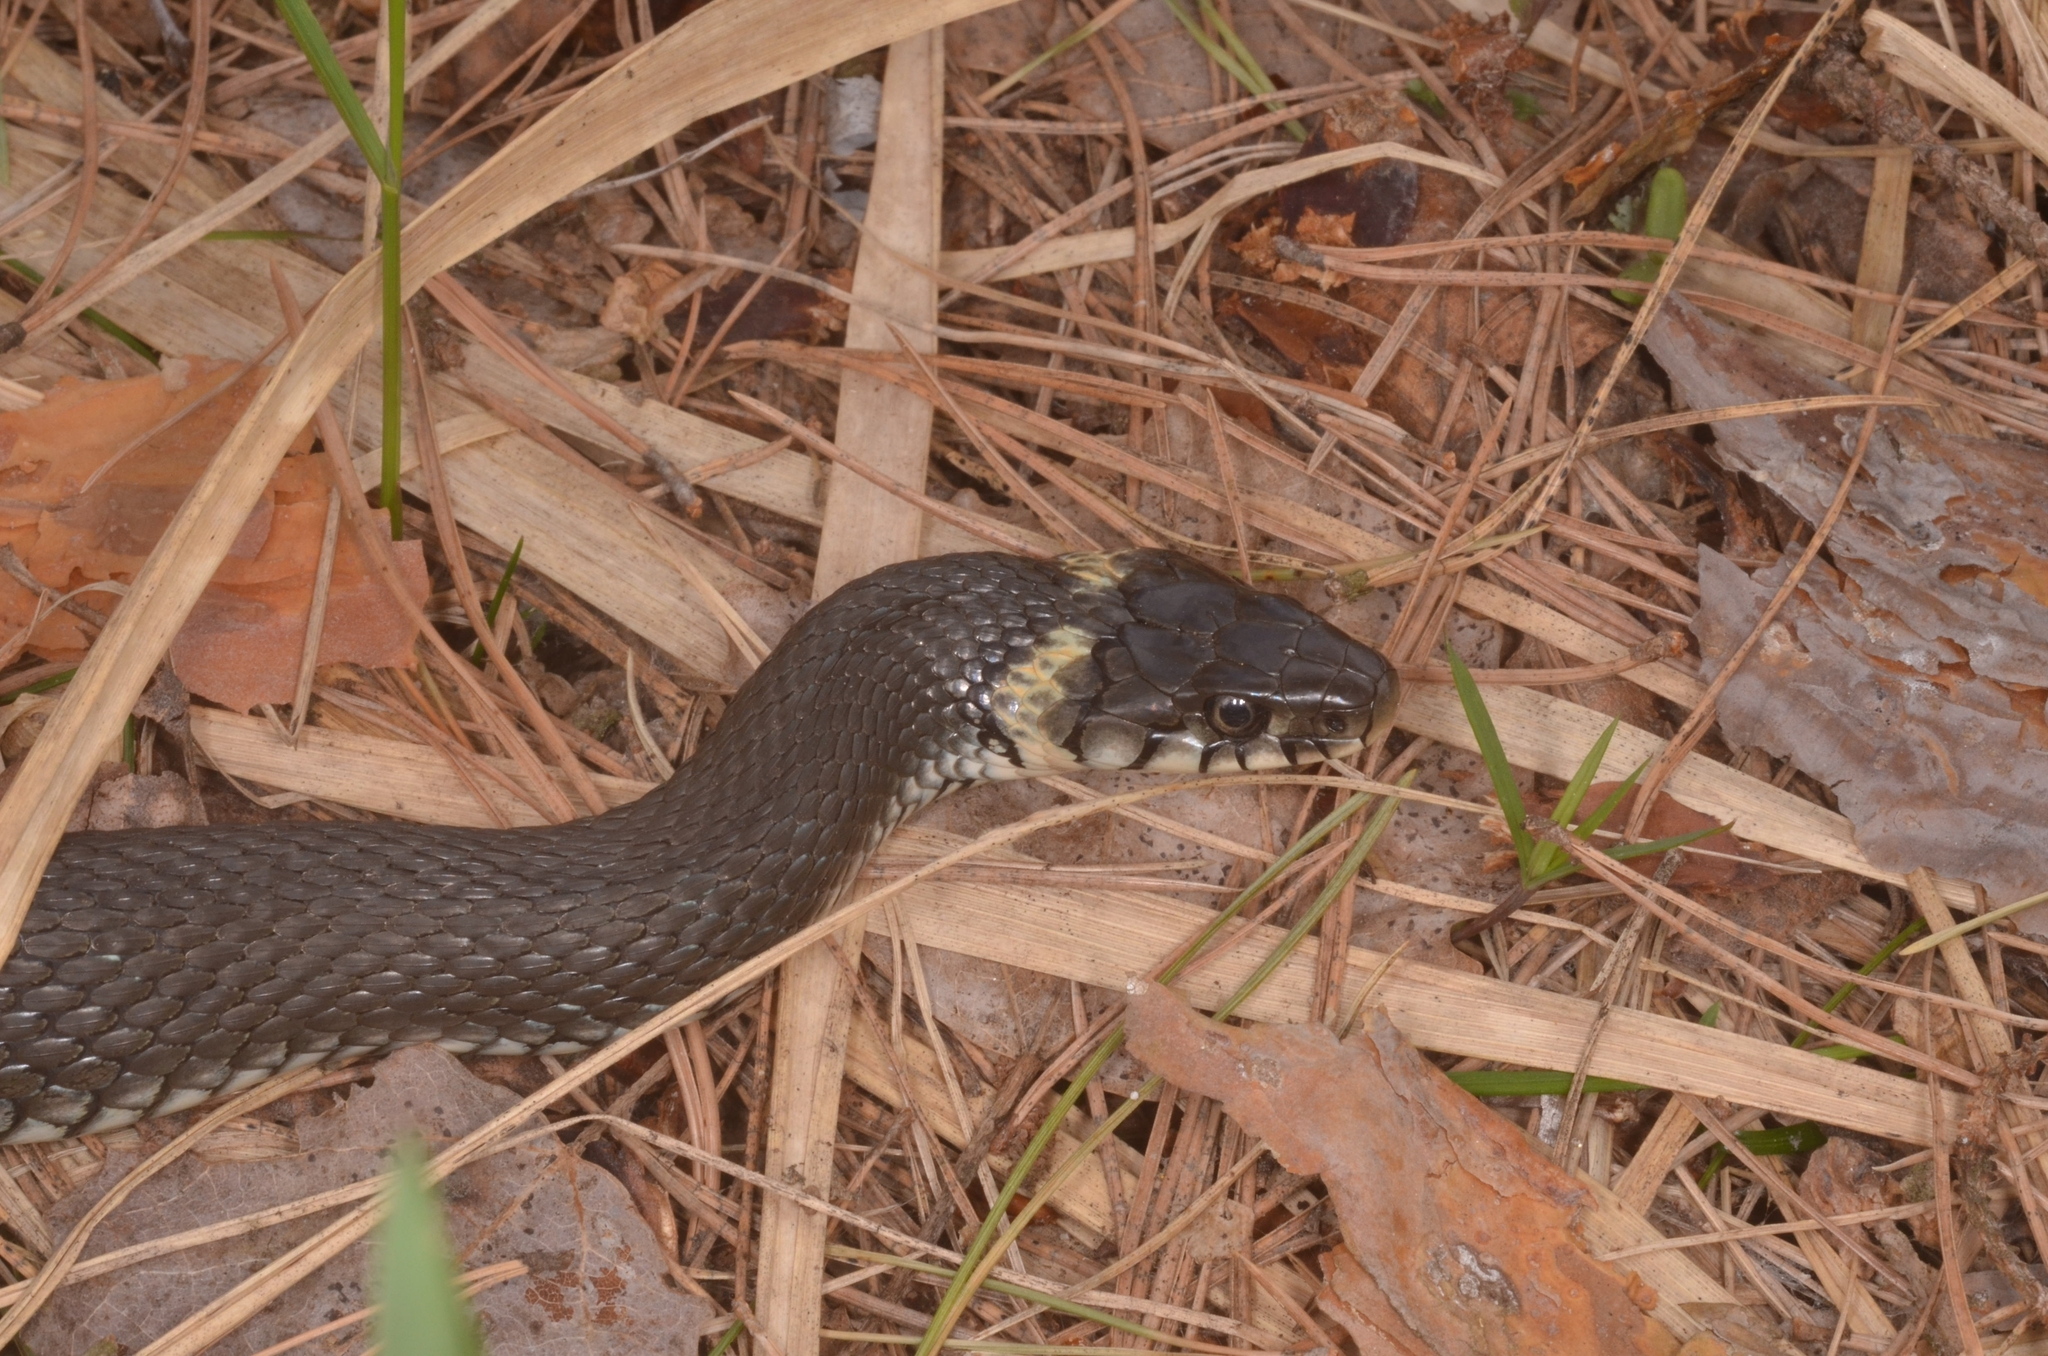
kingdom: Animalia
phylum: Chordata
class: Squamata
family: Colubridae
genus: Natrix
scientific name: Natrix natrix
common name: Grass snake
